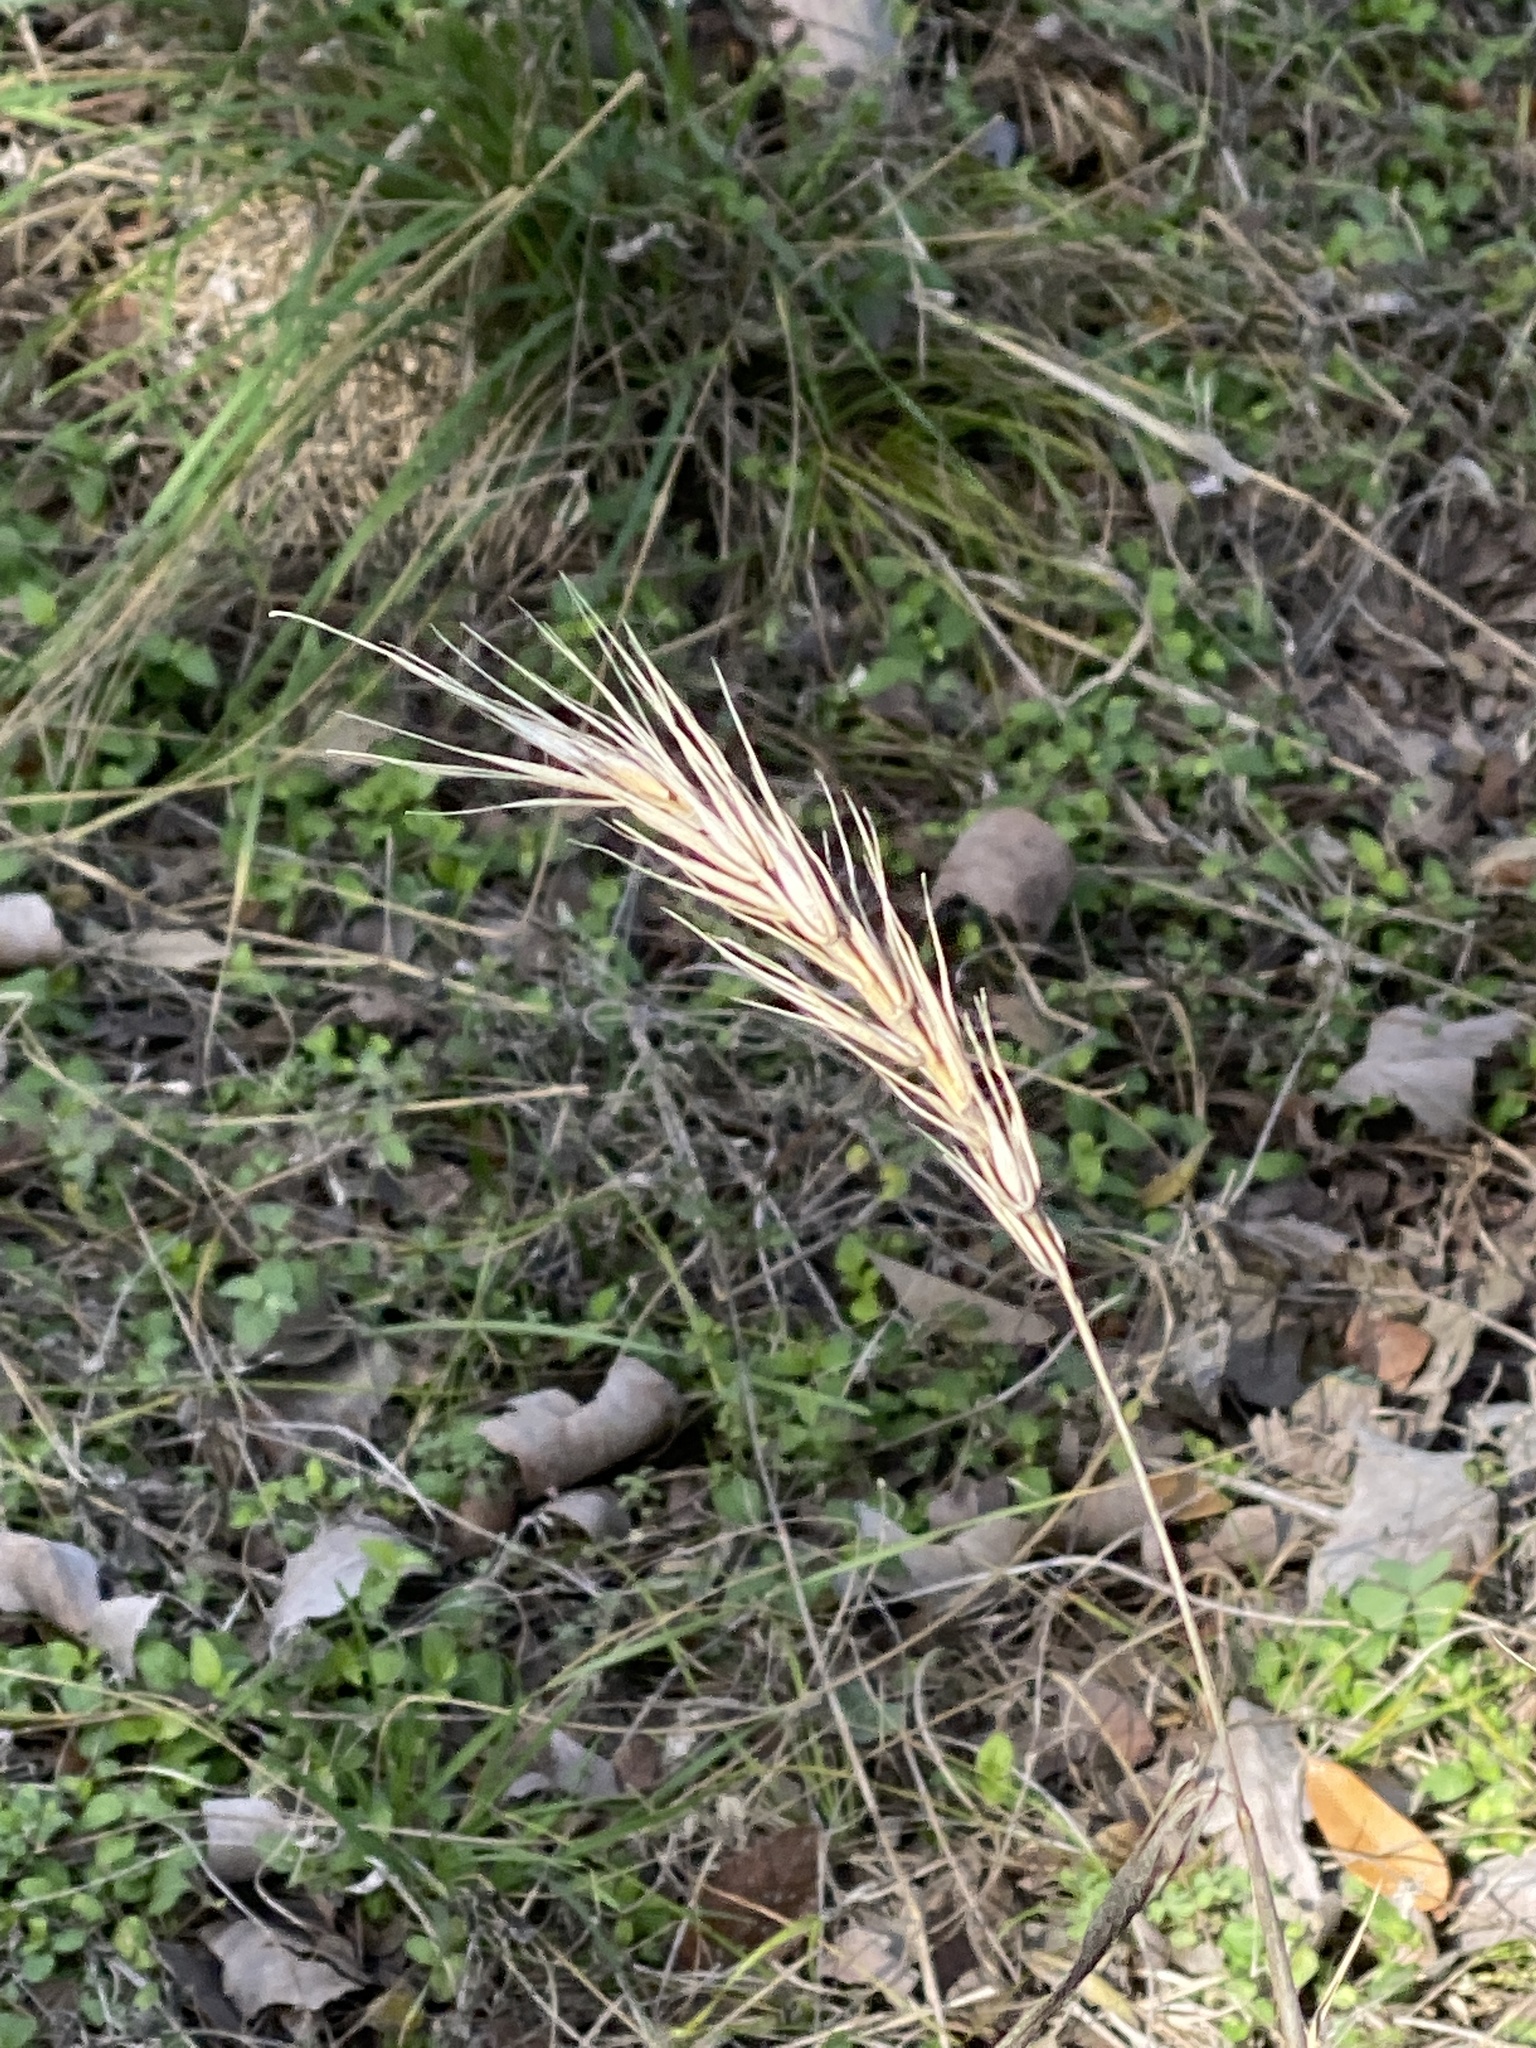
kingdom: Plantae
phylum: Tracheophyta
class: Liliopsida
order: Poales
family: Poaceae
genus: Elymus
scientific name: Elymus virginicus
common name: Common eastern wildrye
